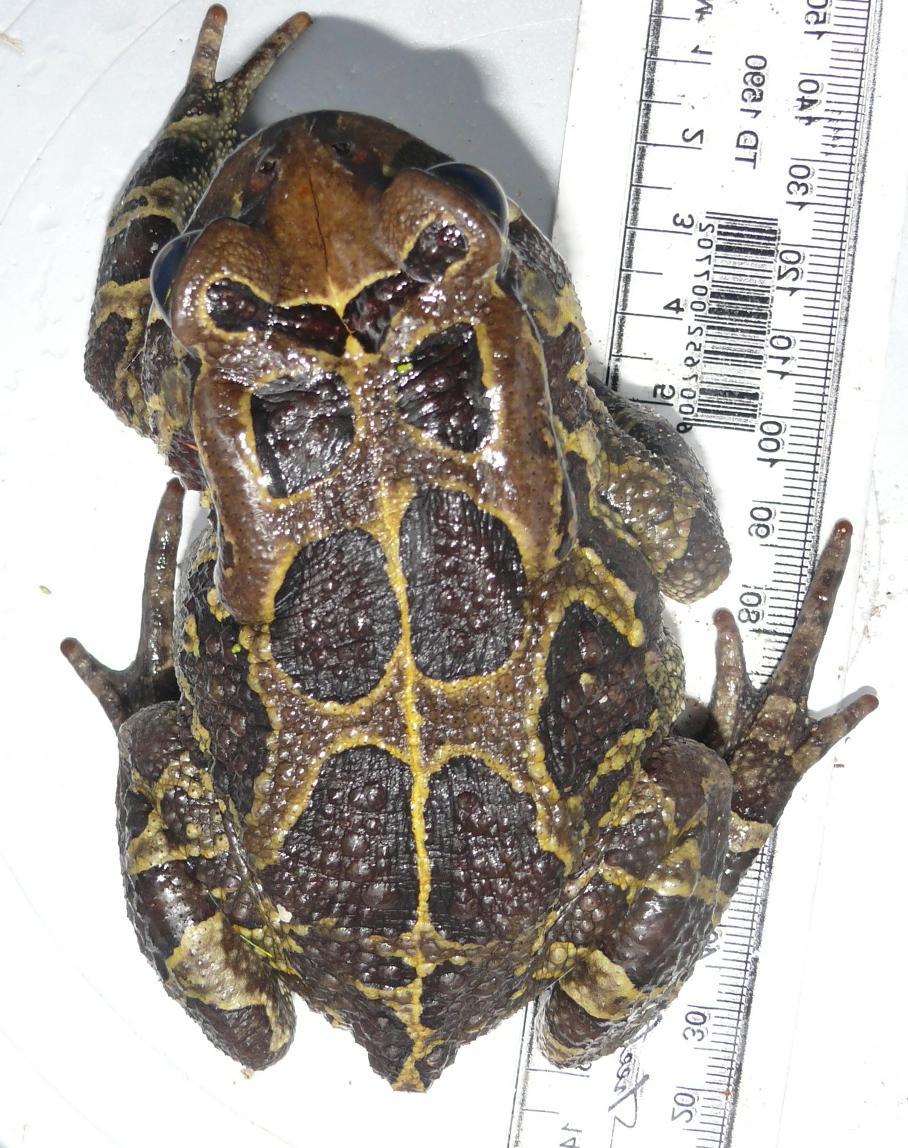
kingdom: Animalia
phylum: Chordata
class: Amphibia
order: Anura
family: Bufonidae
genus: Sclerophrys
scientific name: Sclerophrys pantherina
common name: Panther toad
